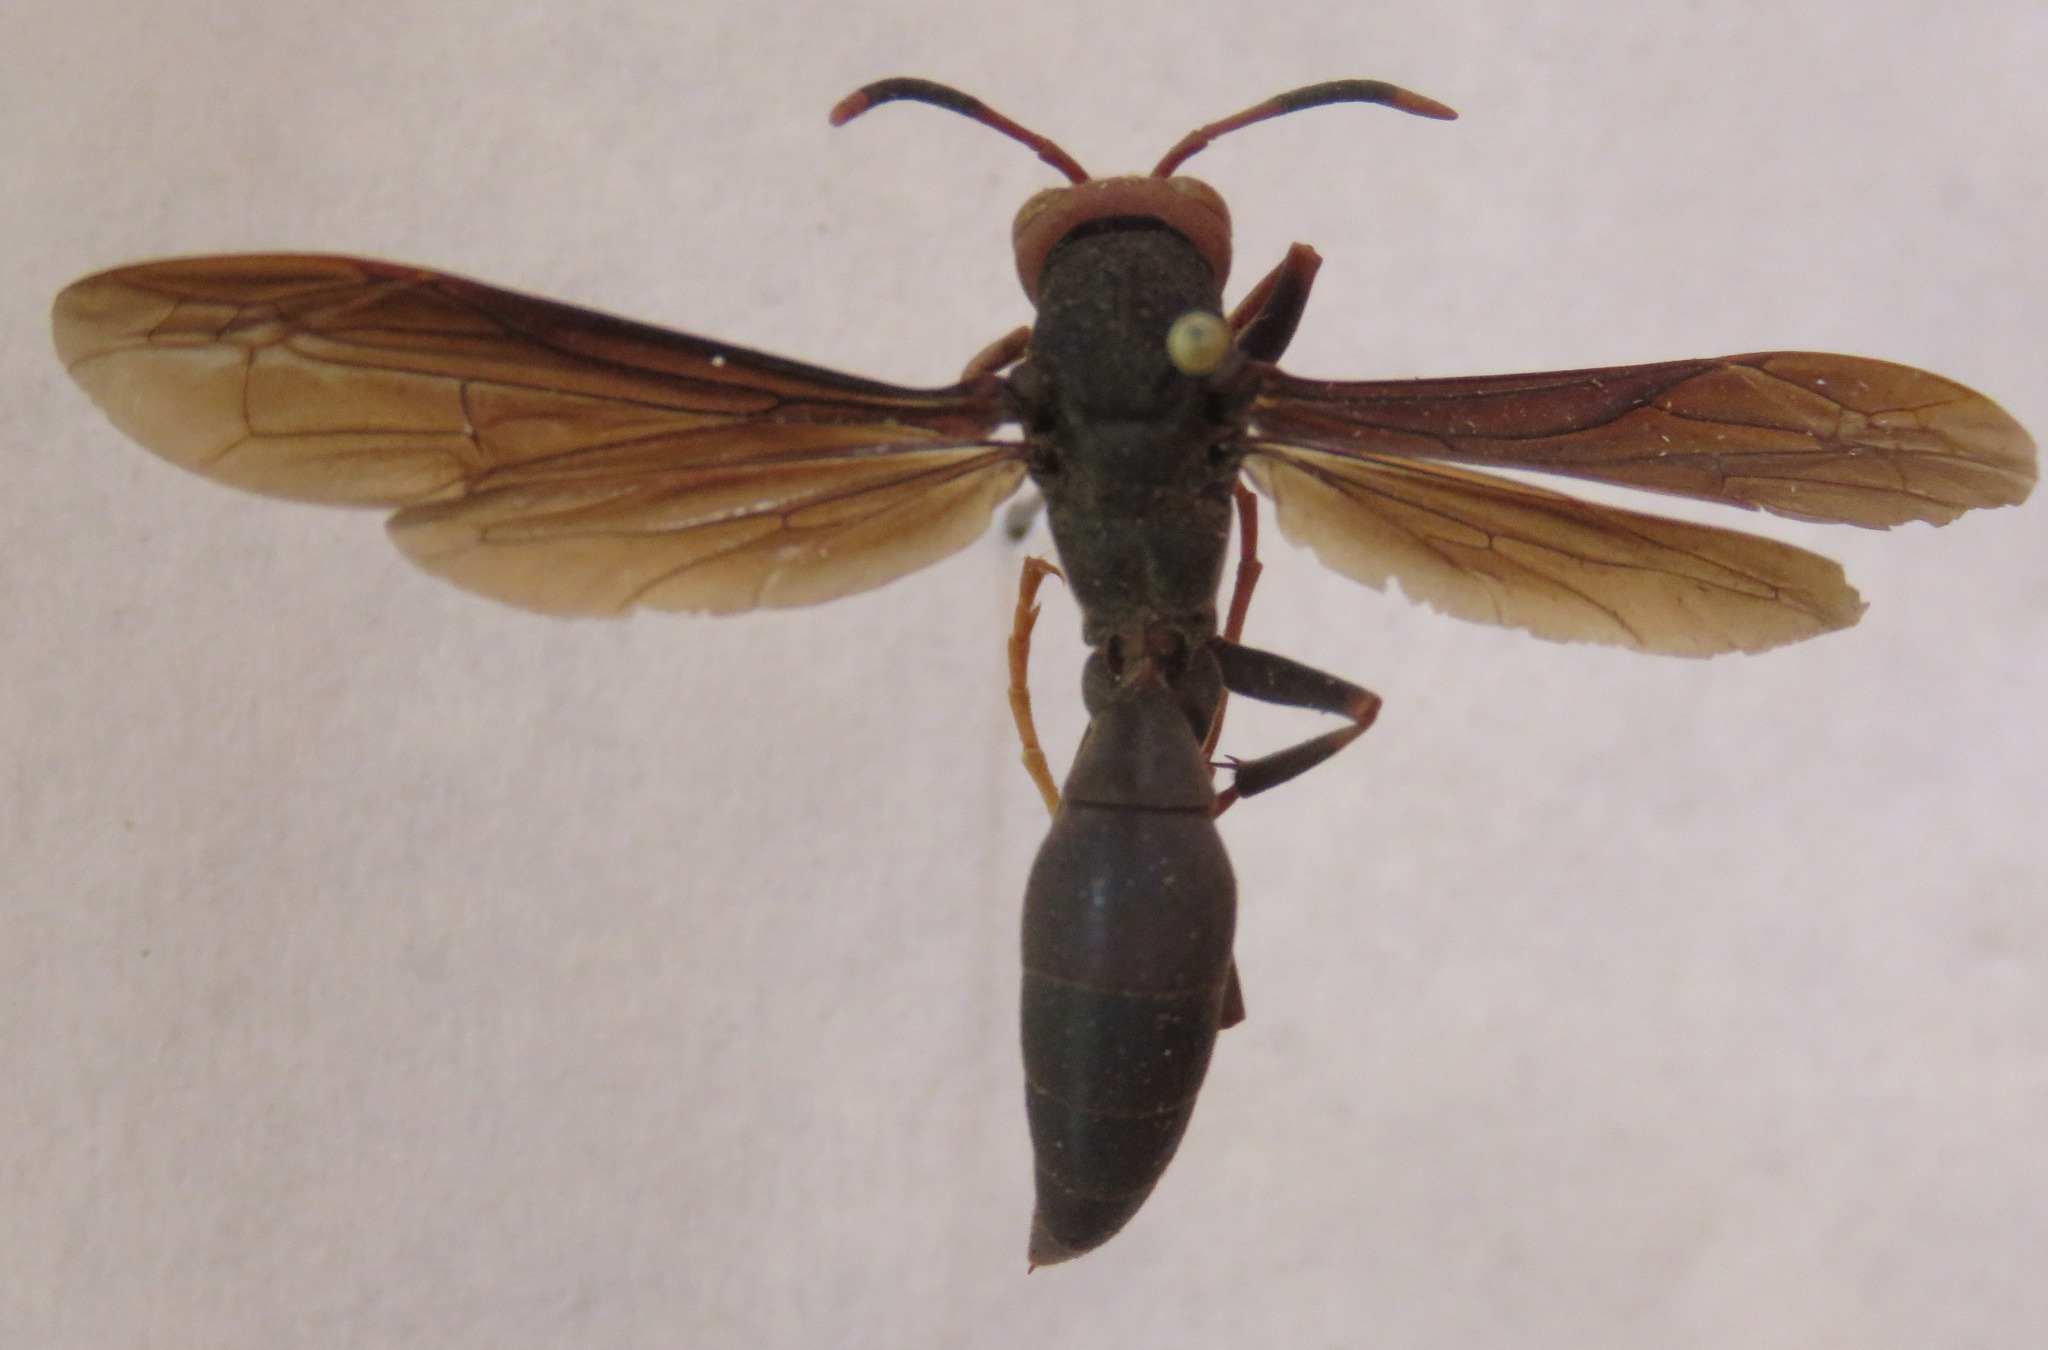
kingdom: Animalia
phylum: Arthropoda
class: Insecta
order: Hymenoptera
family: Eumenidae
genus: Polistes
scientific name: Polistes erythrocephalus
